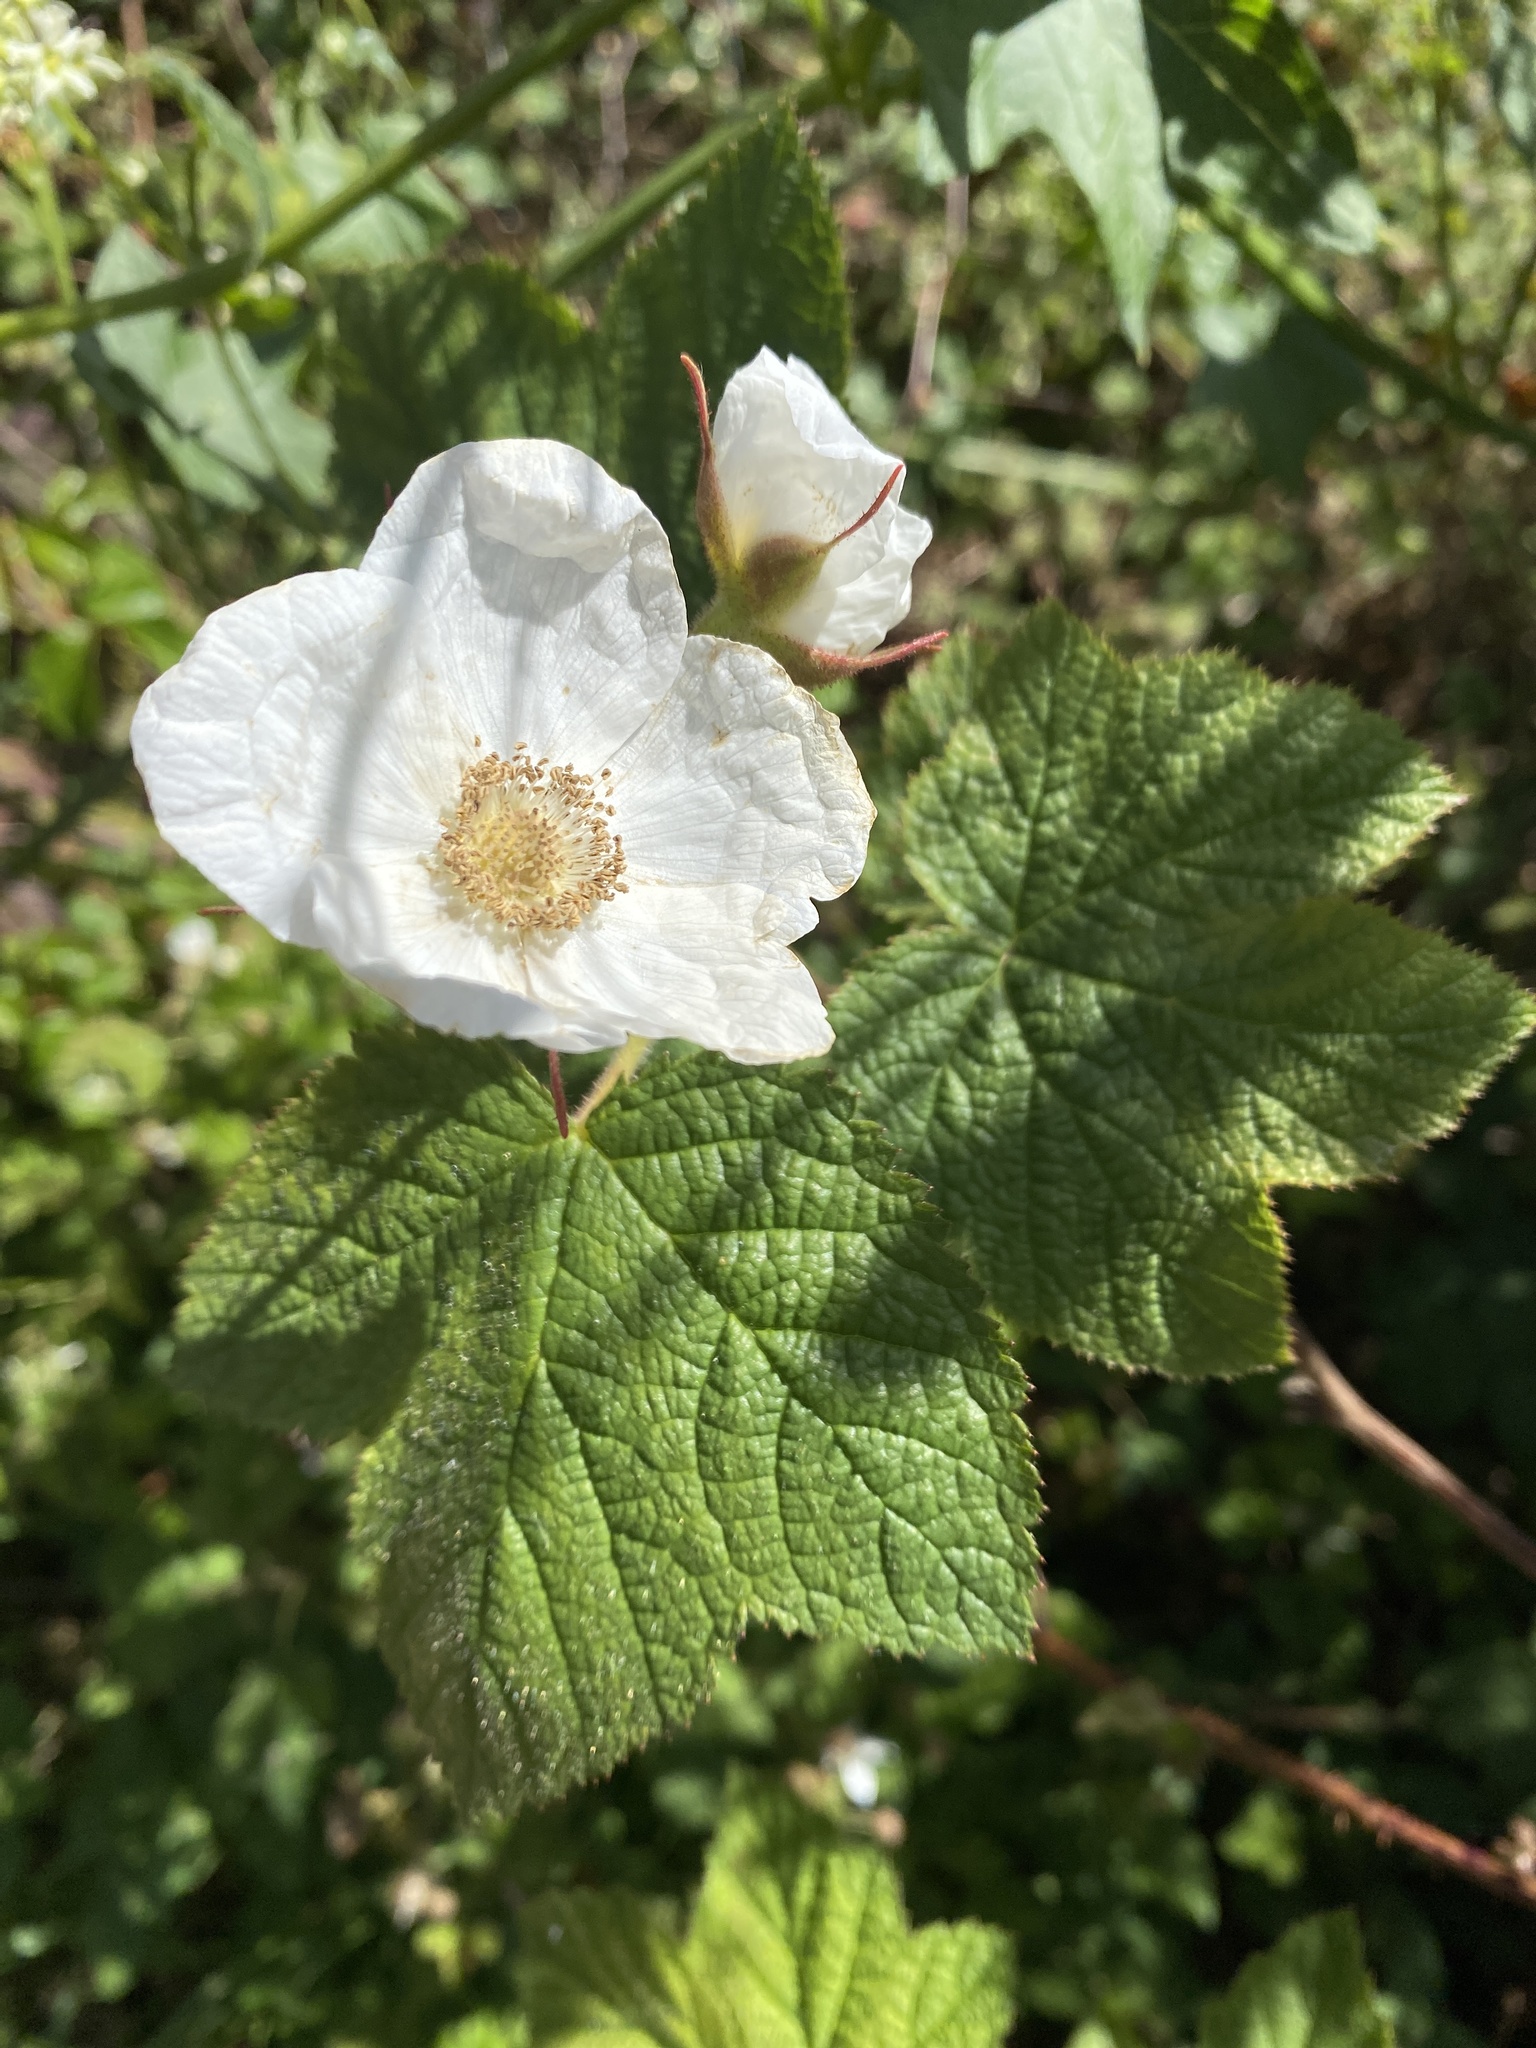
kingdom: Plantae
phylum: Tracheophyta
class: Magnoliopsida
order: Rosales
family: Rosaceae
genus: Rubus
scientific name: Rubus parviflorus
